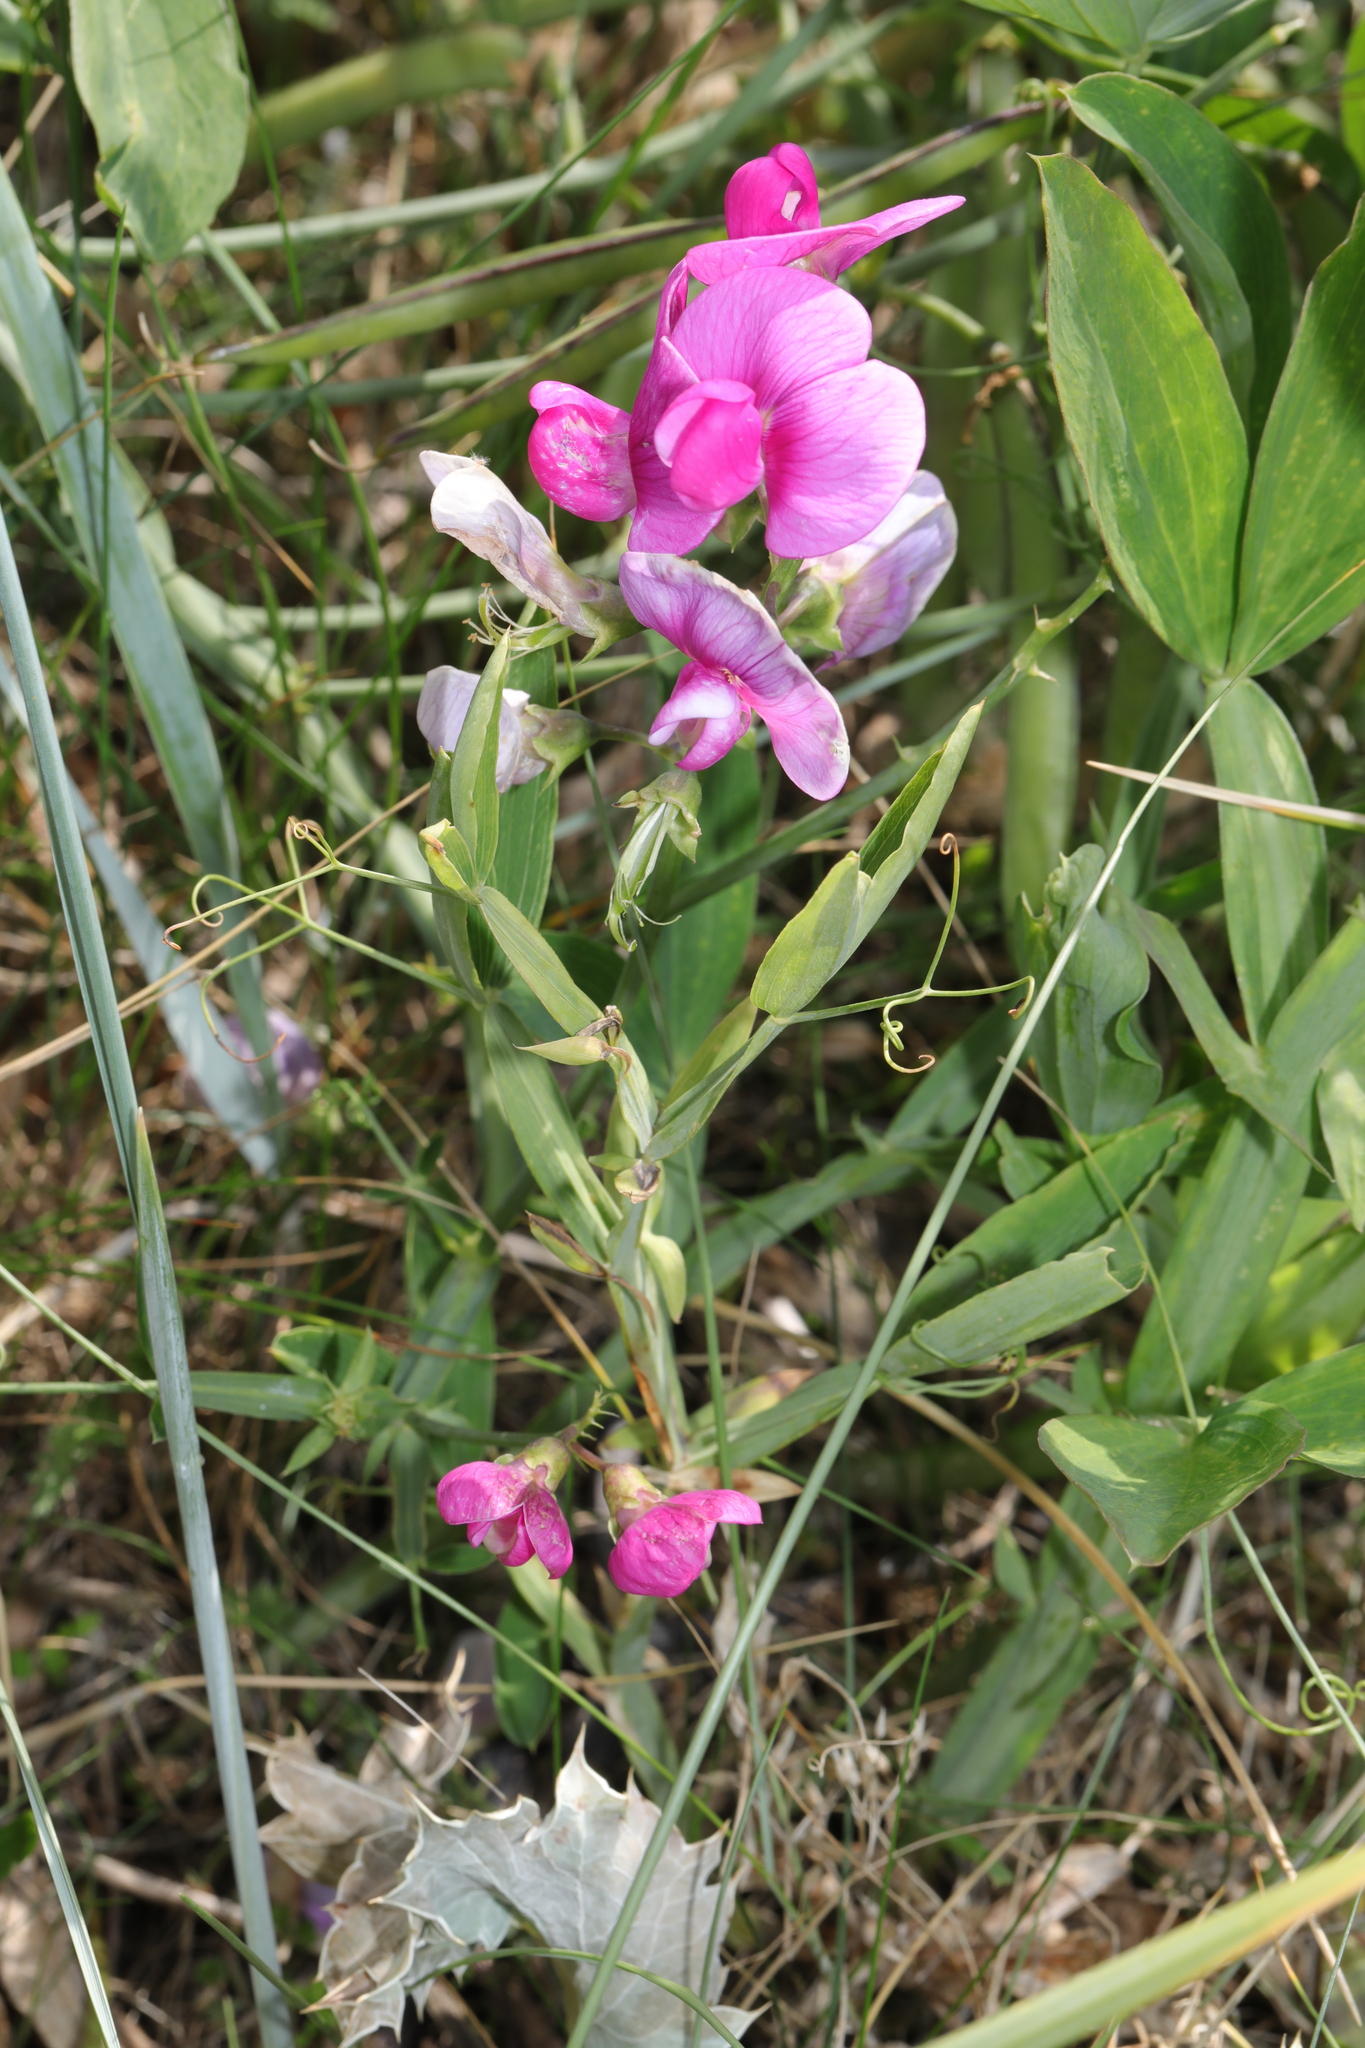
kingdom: Plantae
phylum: Tracheophyta
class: Magnoliopsida
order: Fabales
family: Fabaceae
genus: Lathyrus
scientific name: Lathyrus latifolius
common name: Perennial pea
